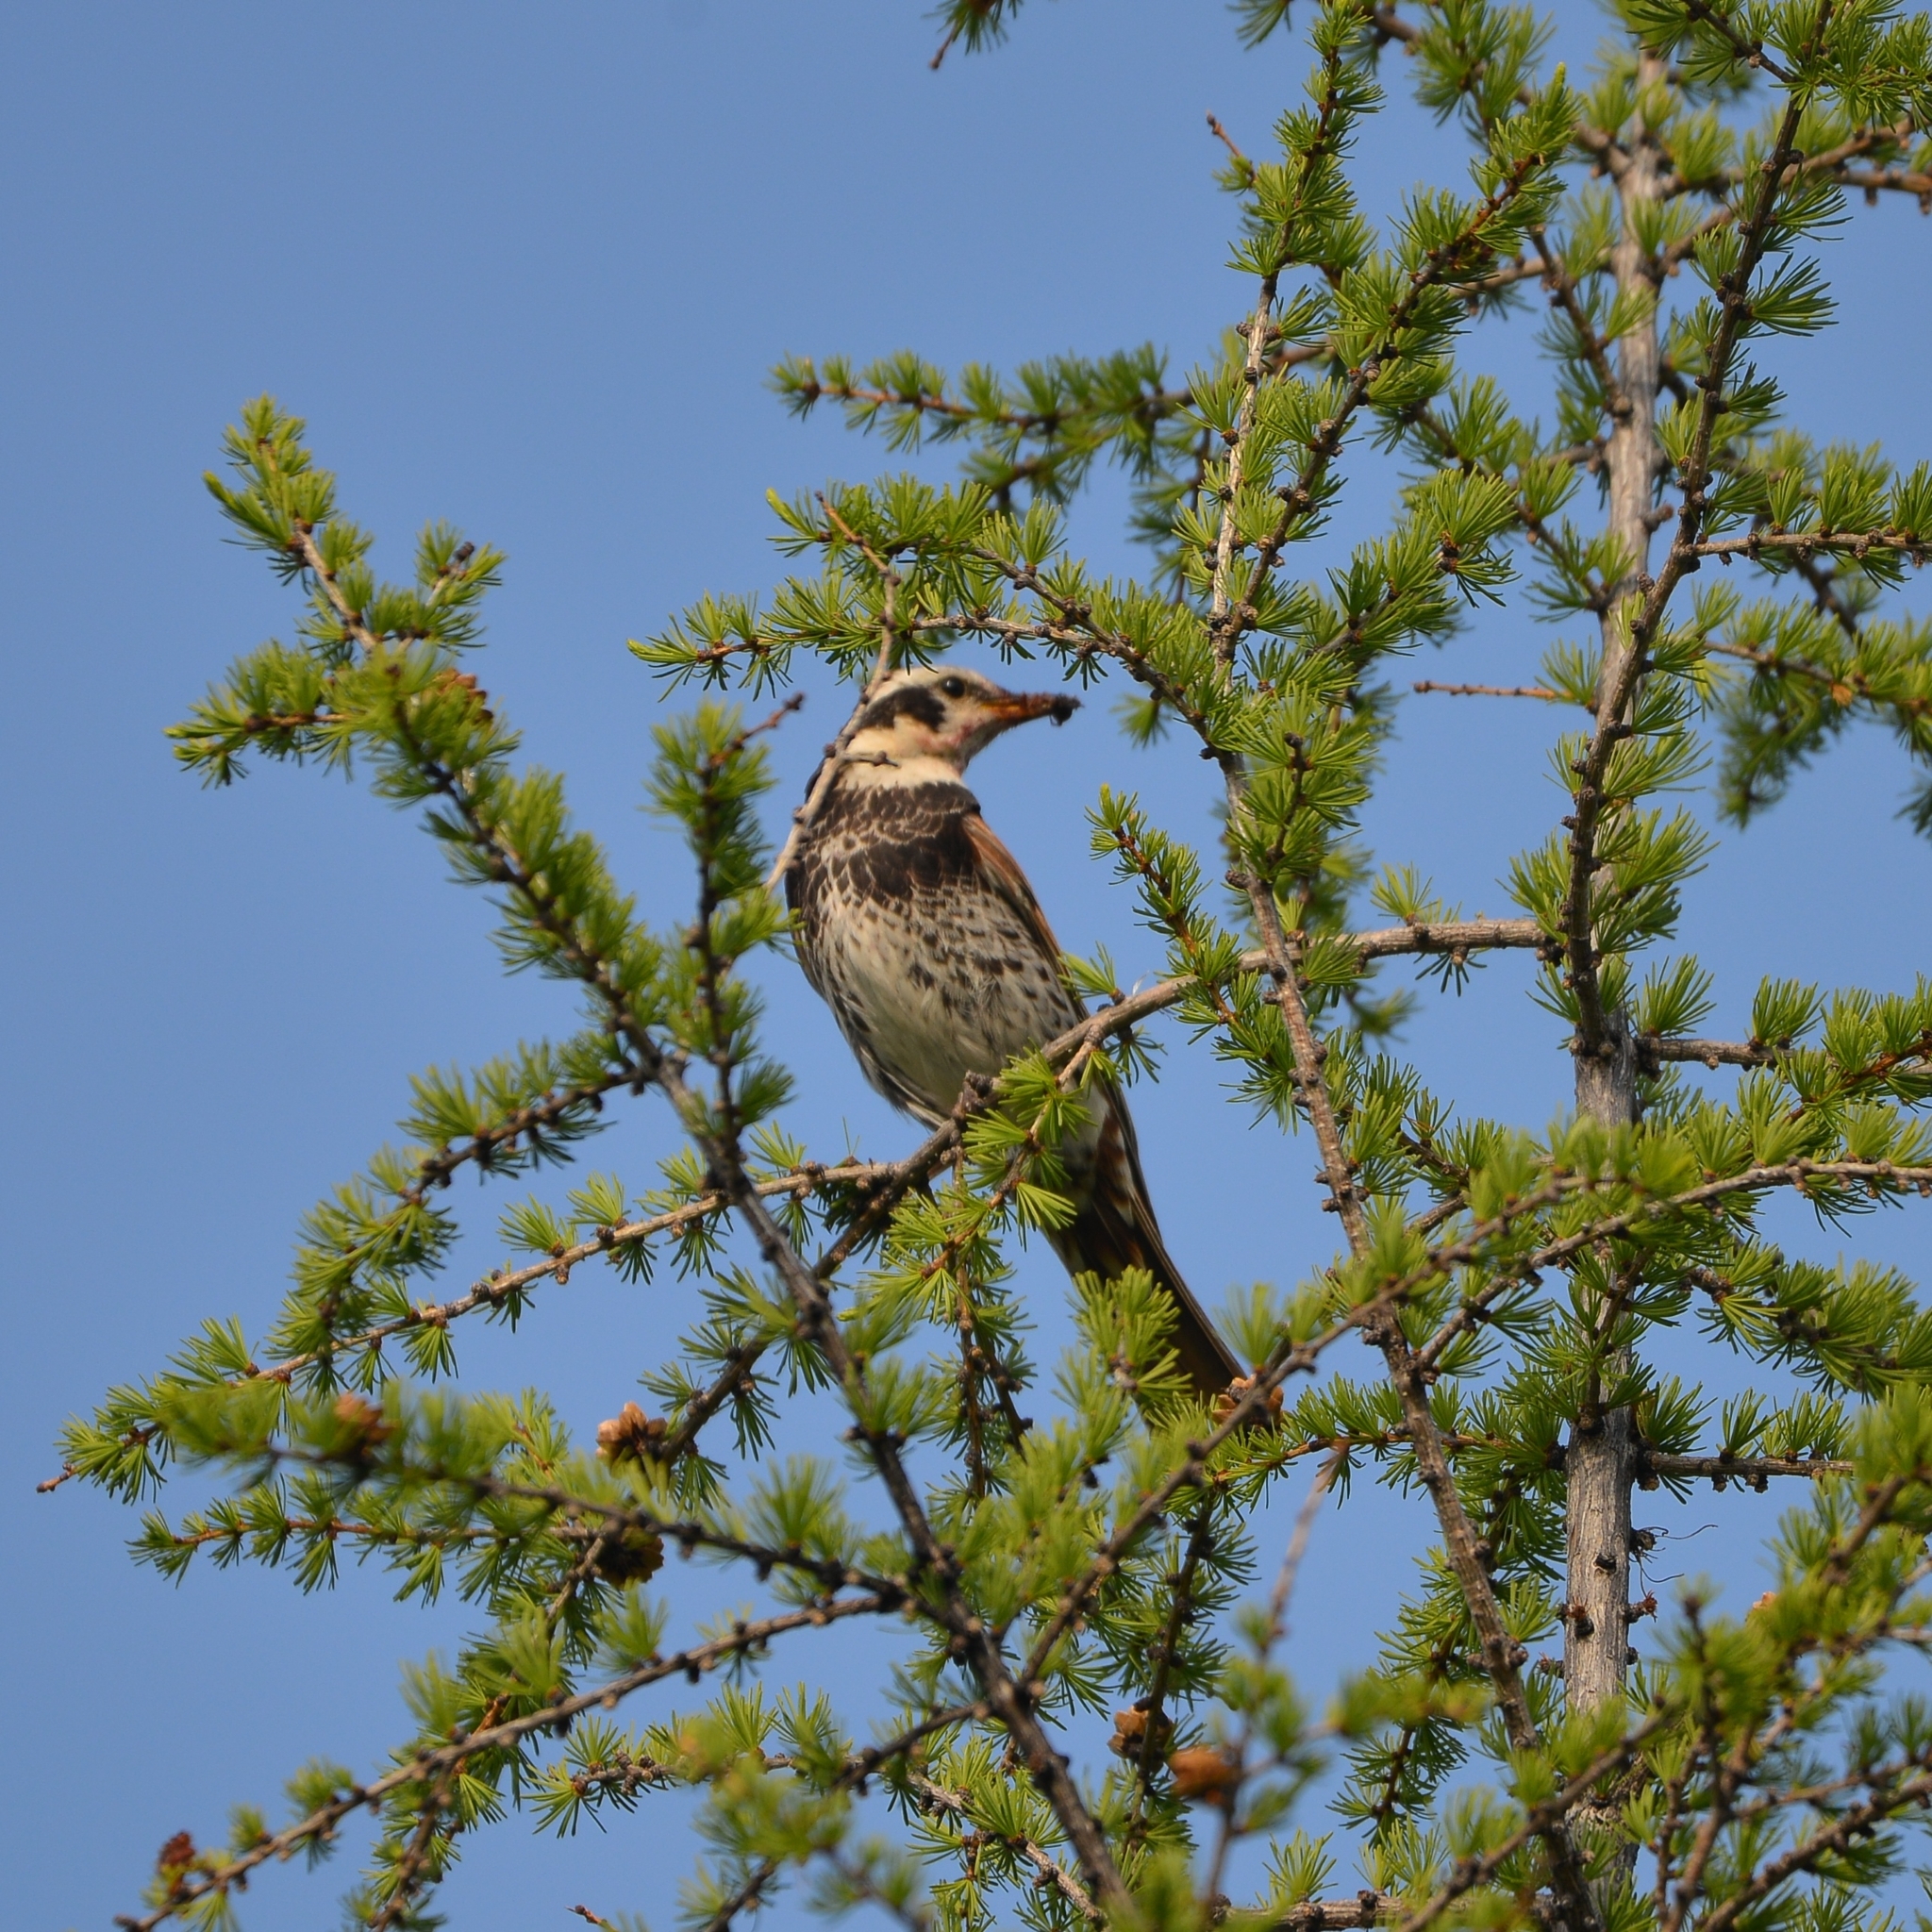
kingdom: Animalia
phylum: Chordata
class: Aves
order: Passeriformes
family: Turdidae
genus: Turdus
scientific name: Turdus eunomus
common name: Dusky thrush
